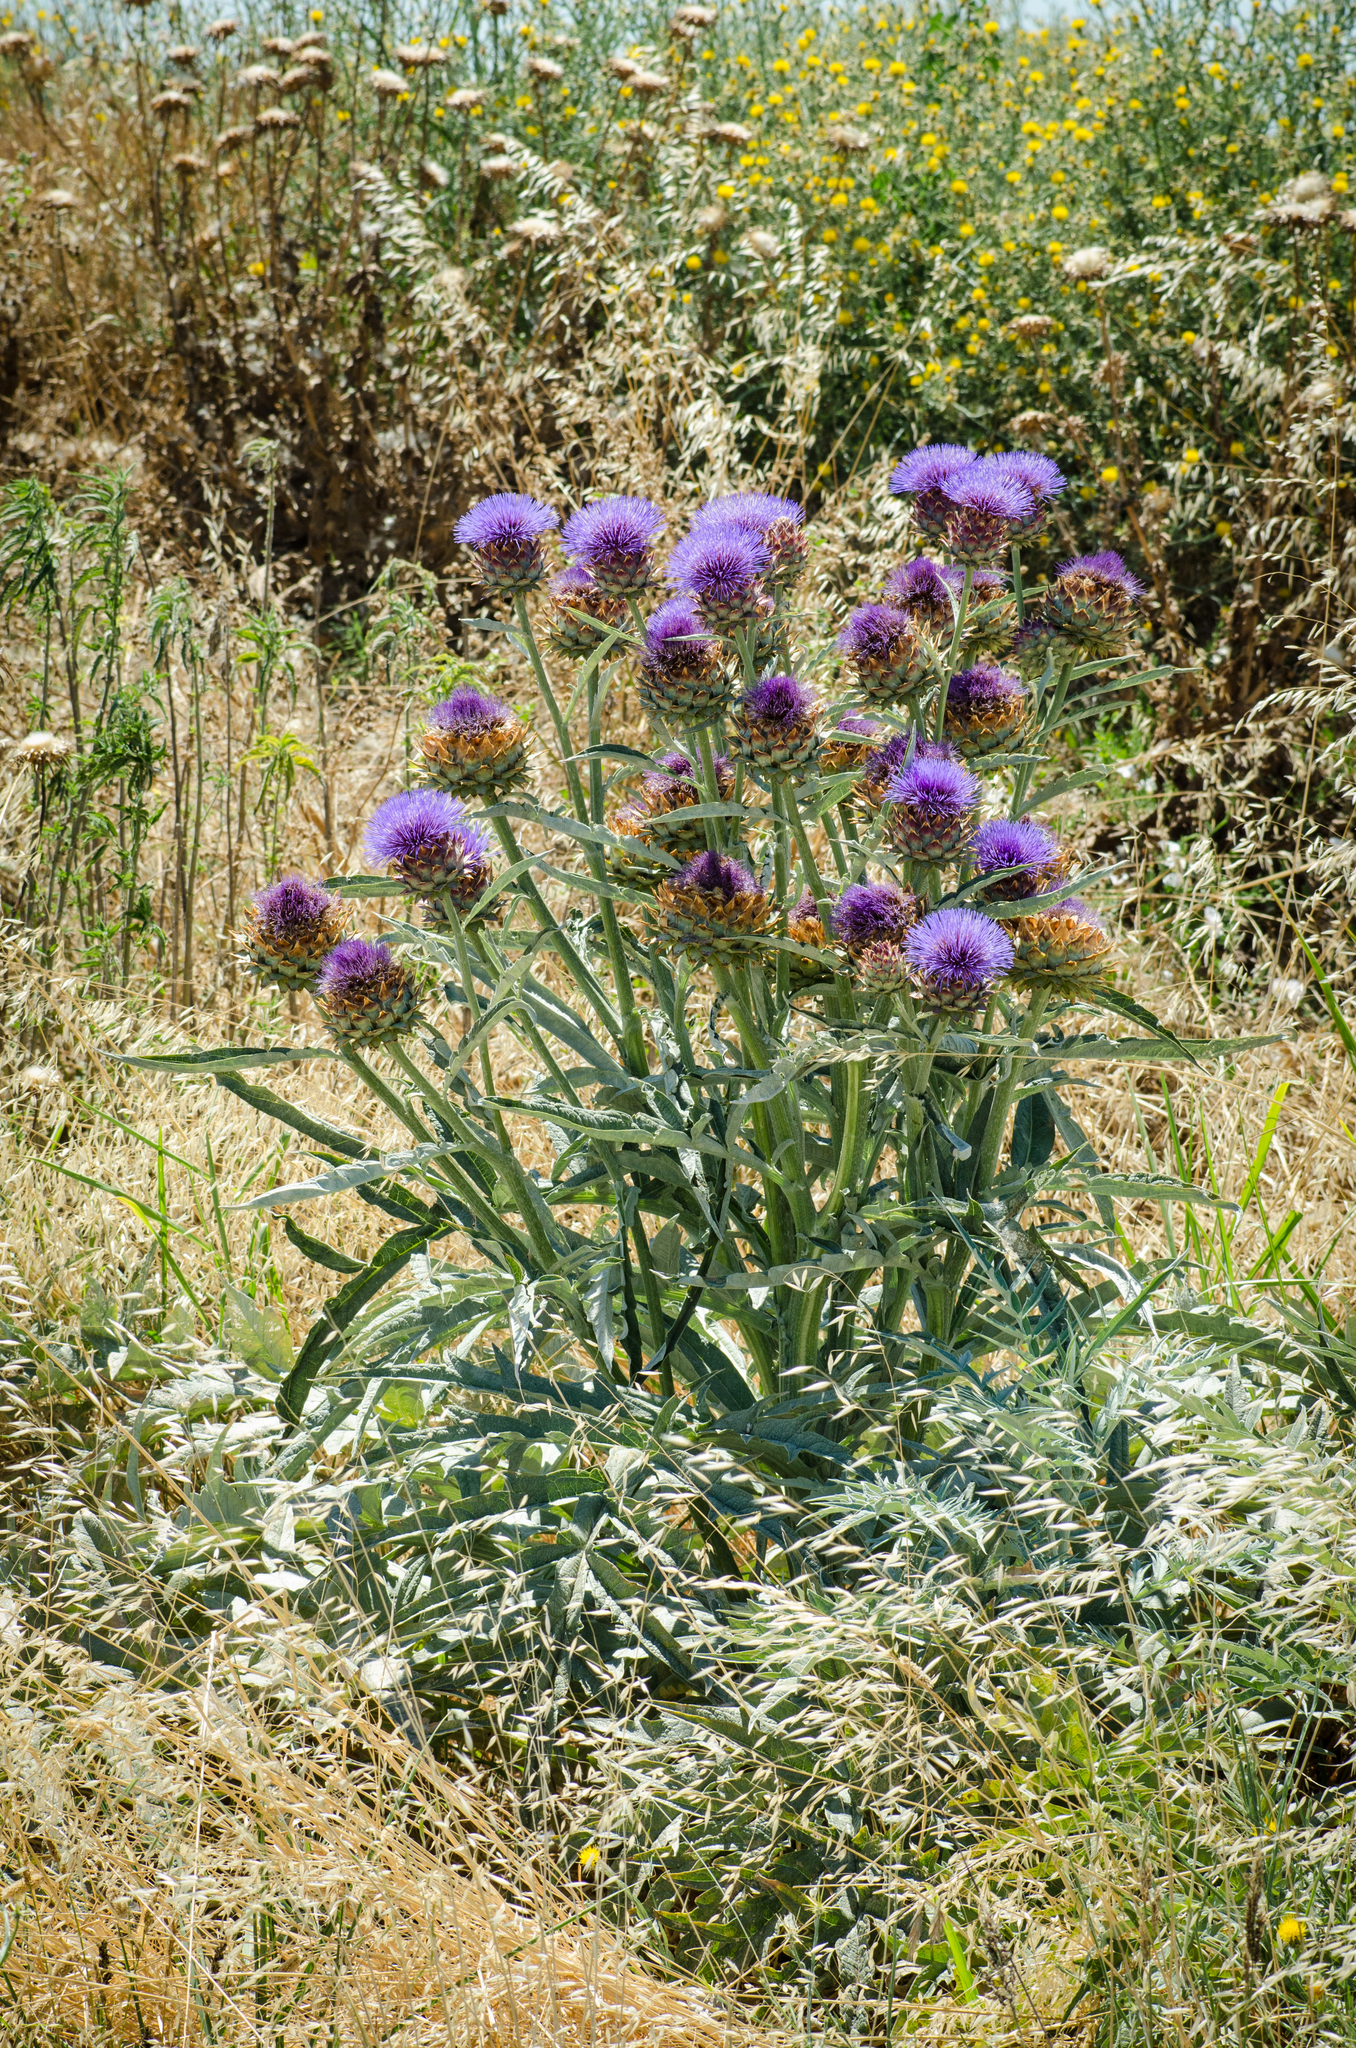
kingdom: Plantae
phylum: Tracheophyta
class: Magnoliopsida
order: Asterales
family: Asteraceae
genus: Cynara
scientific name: Cynara cardunculus
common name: Globe artichoke
